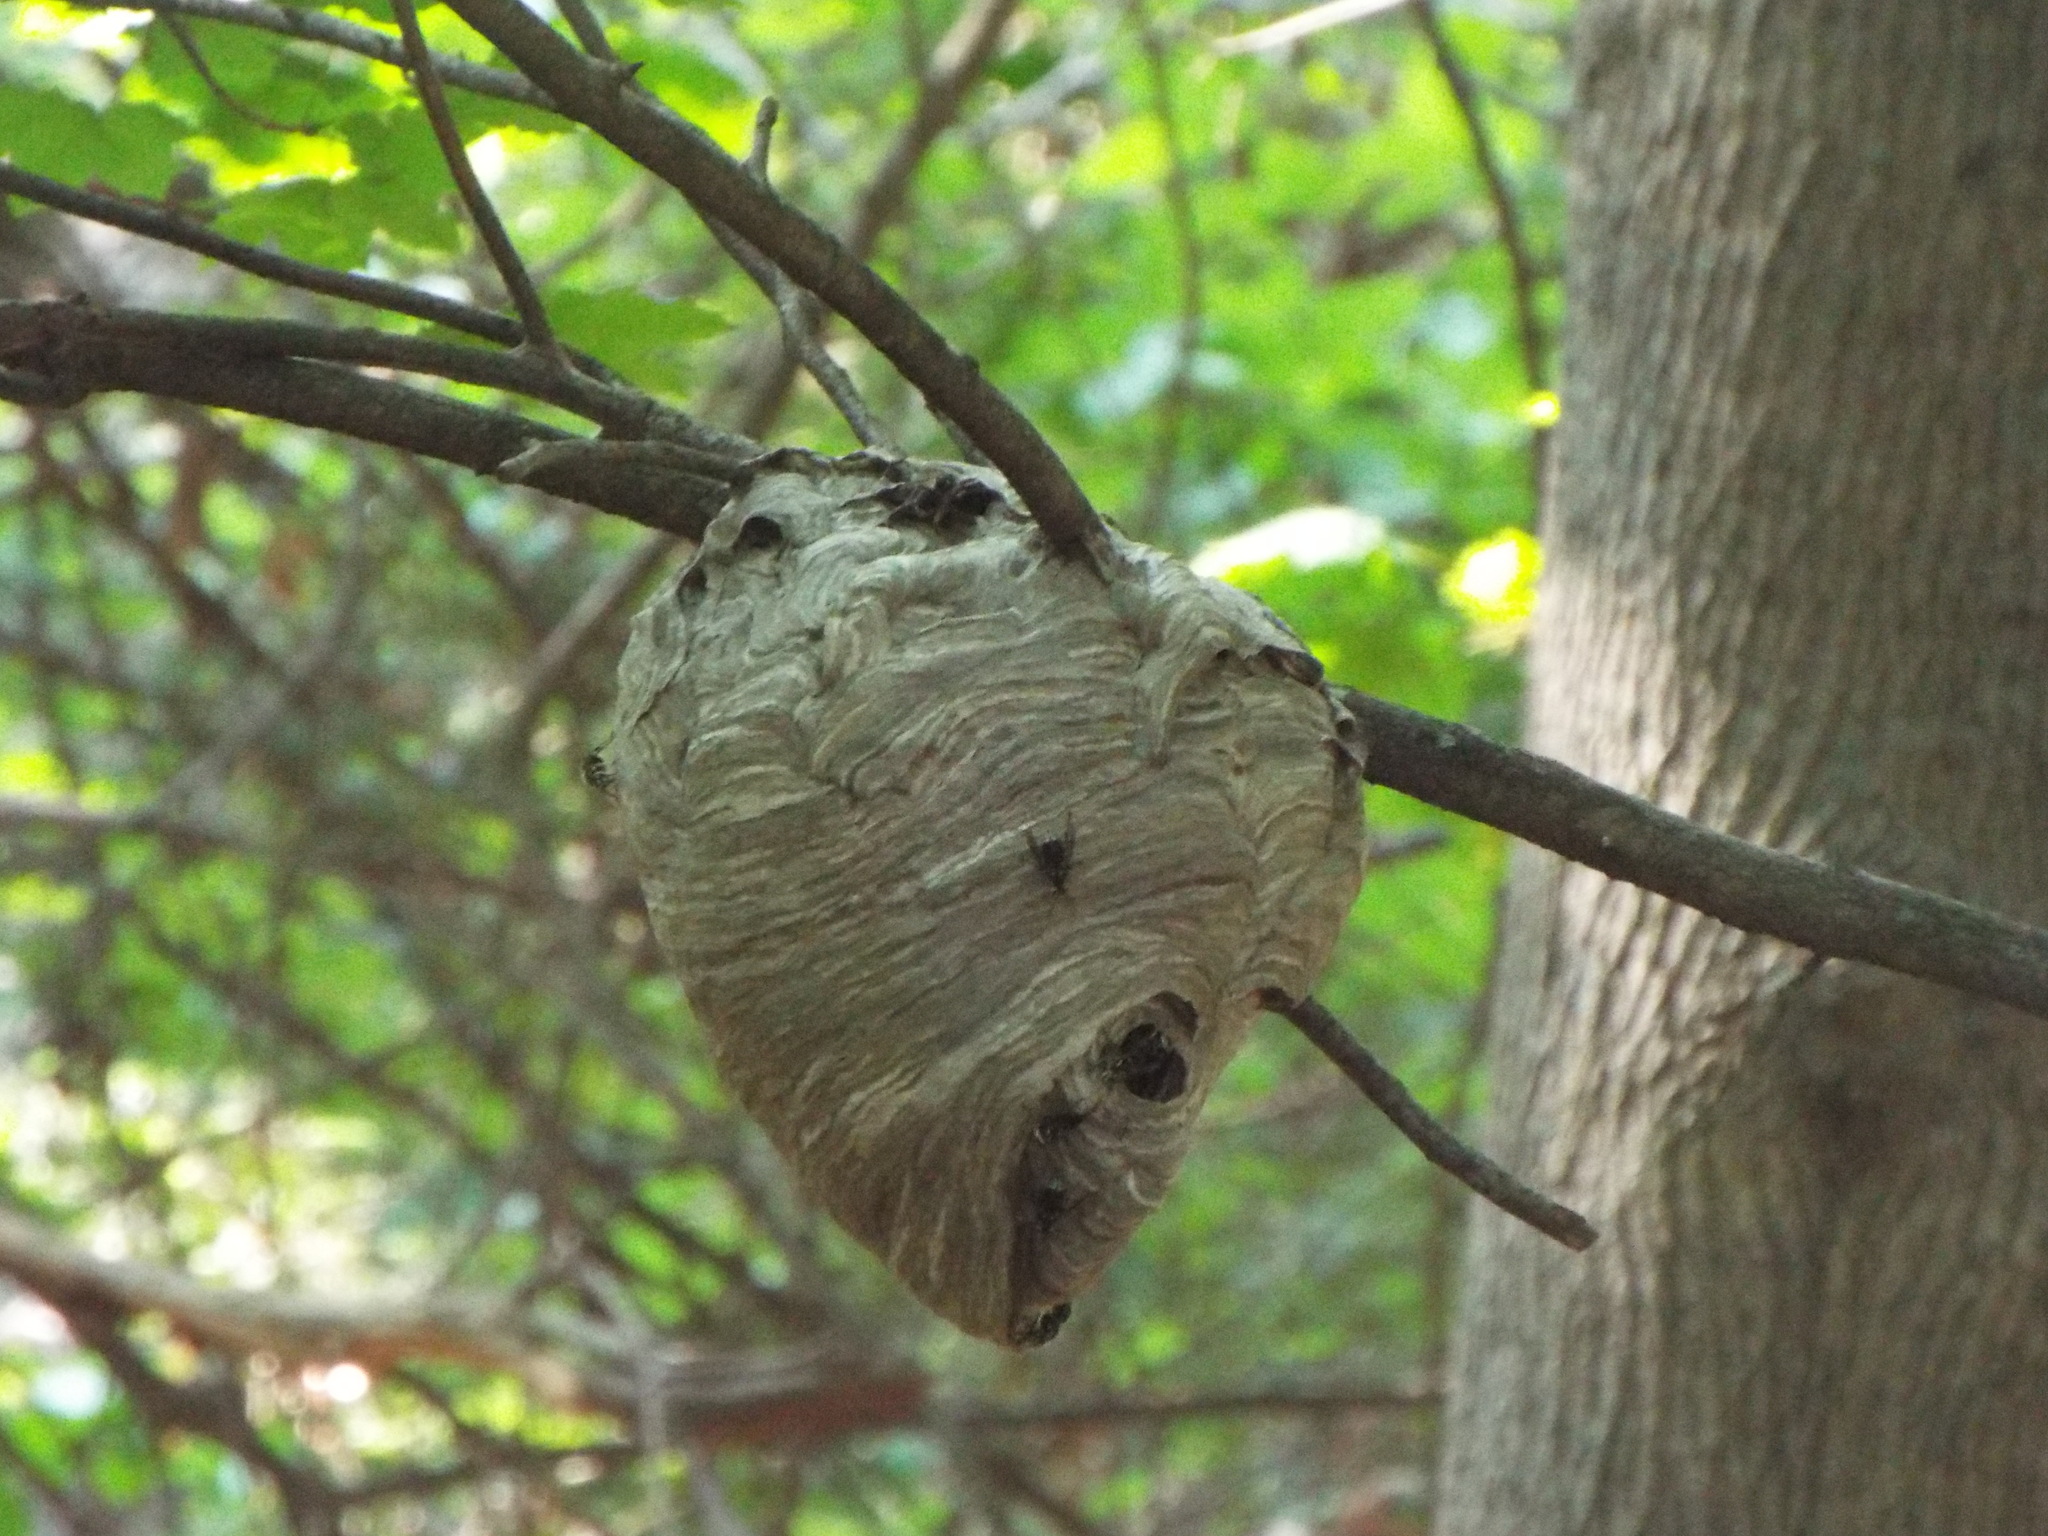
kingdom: Animalia
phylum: Arthropoda
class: Insecta
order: Hymenoptera
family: Vespidae
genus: Dolichovespula
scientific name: Dolichovespula maculata
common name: Bald-faced hornet
